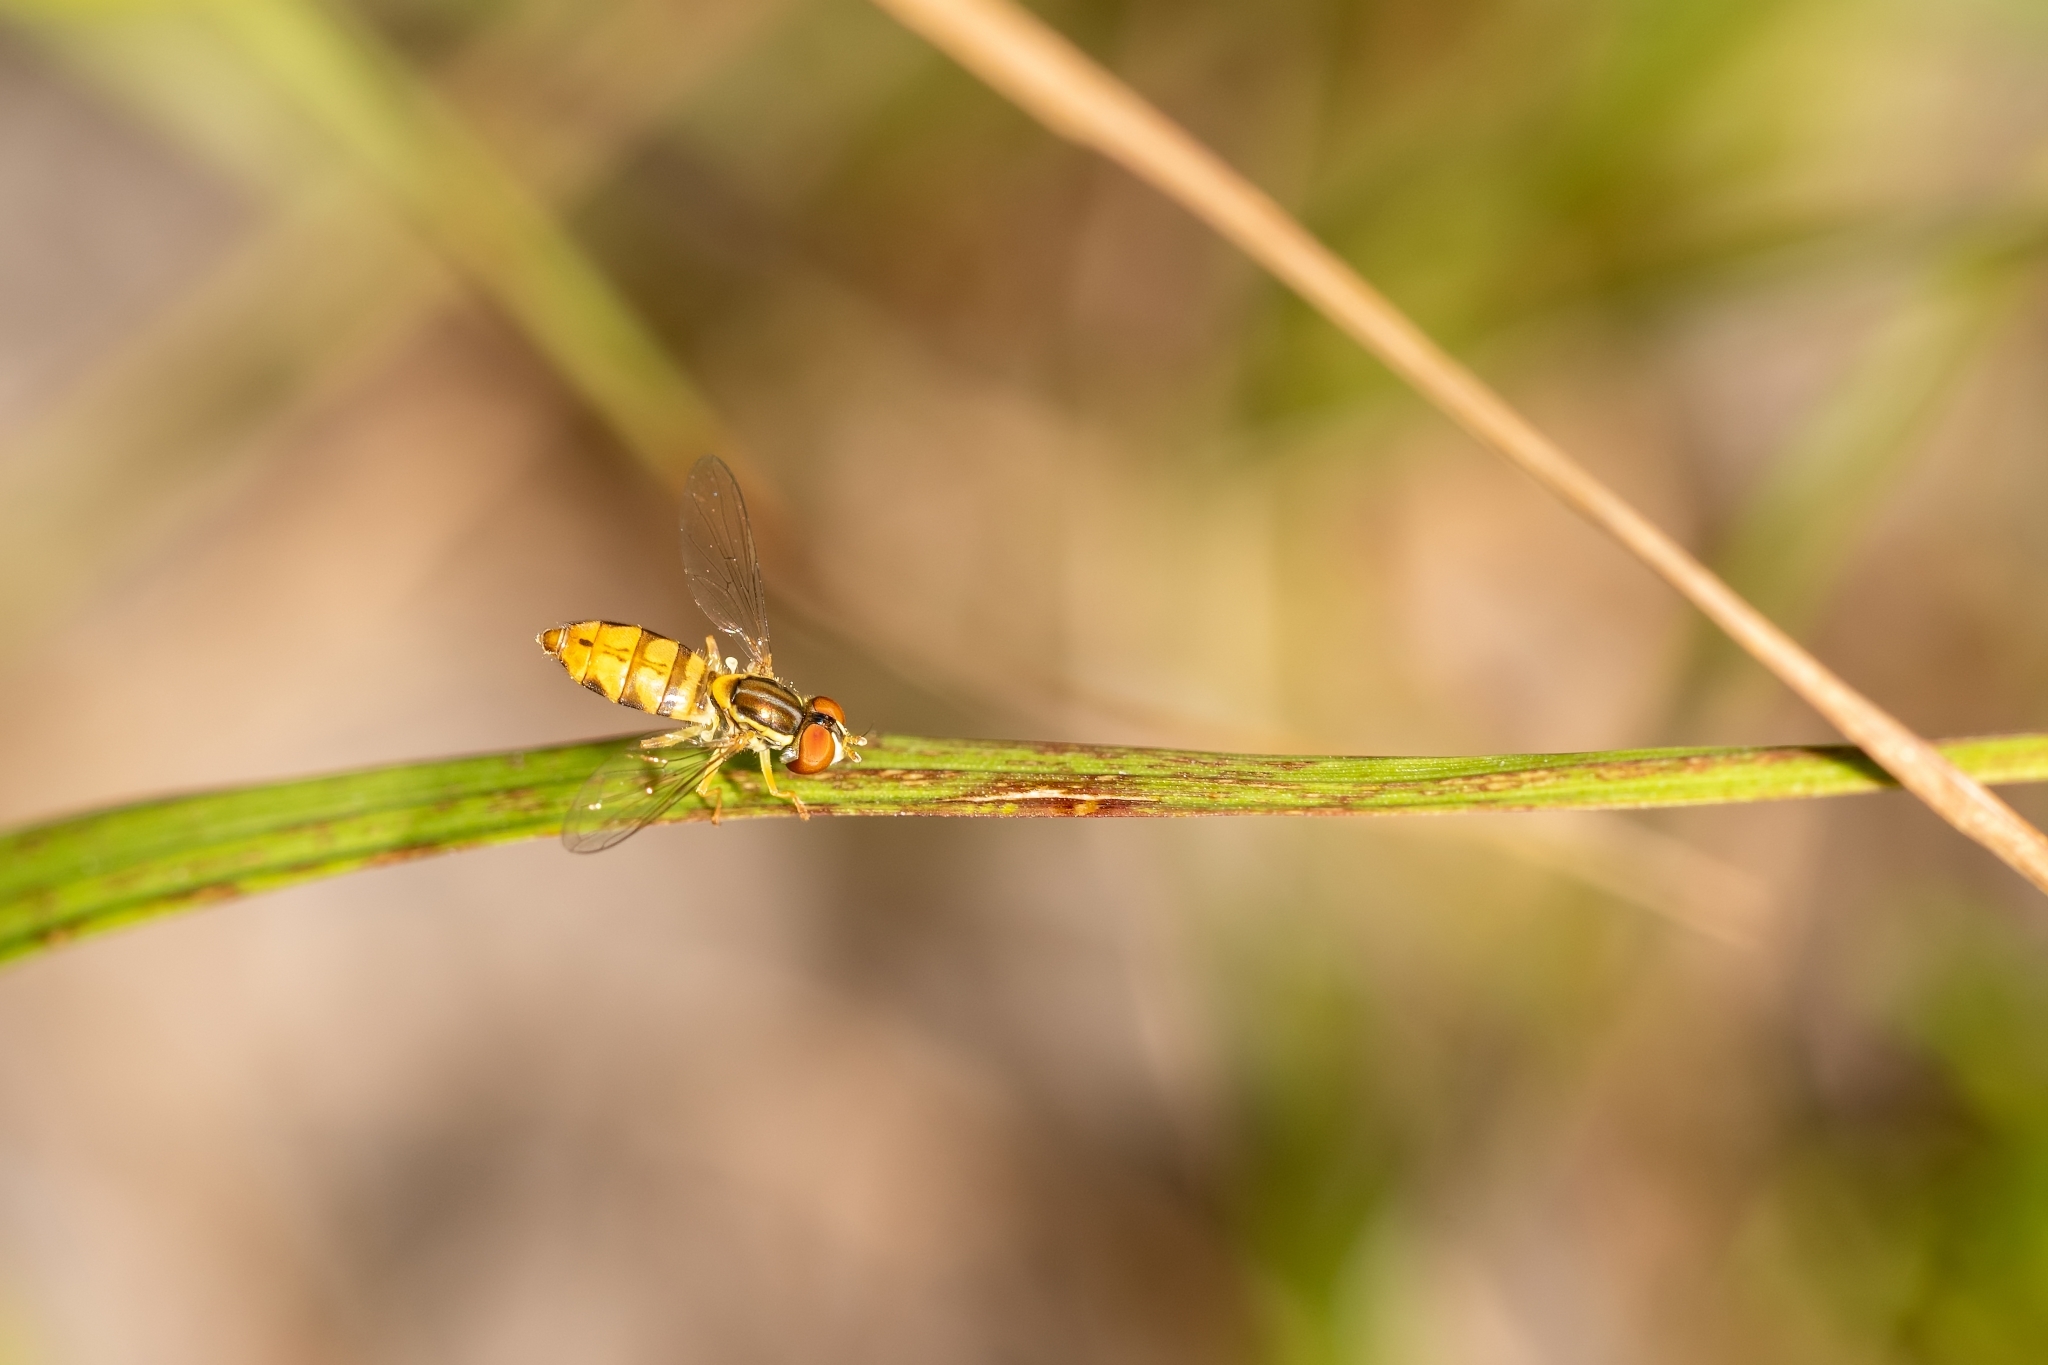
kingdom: Animalia
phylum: Arthropoda
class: Insecta
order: Diptera
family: Syrphidae
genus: Toxomerus
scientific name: Toxomerus floralis
